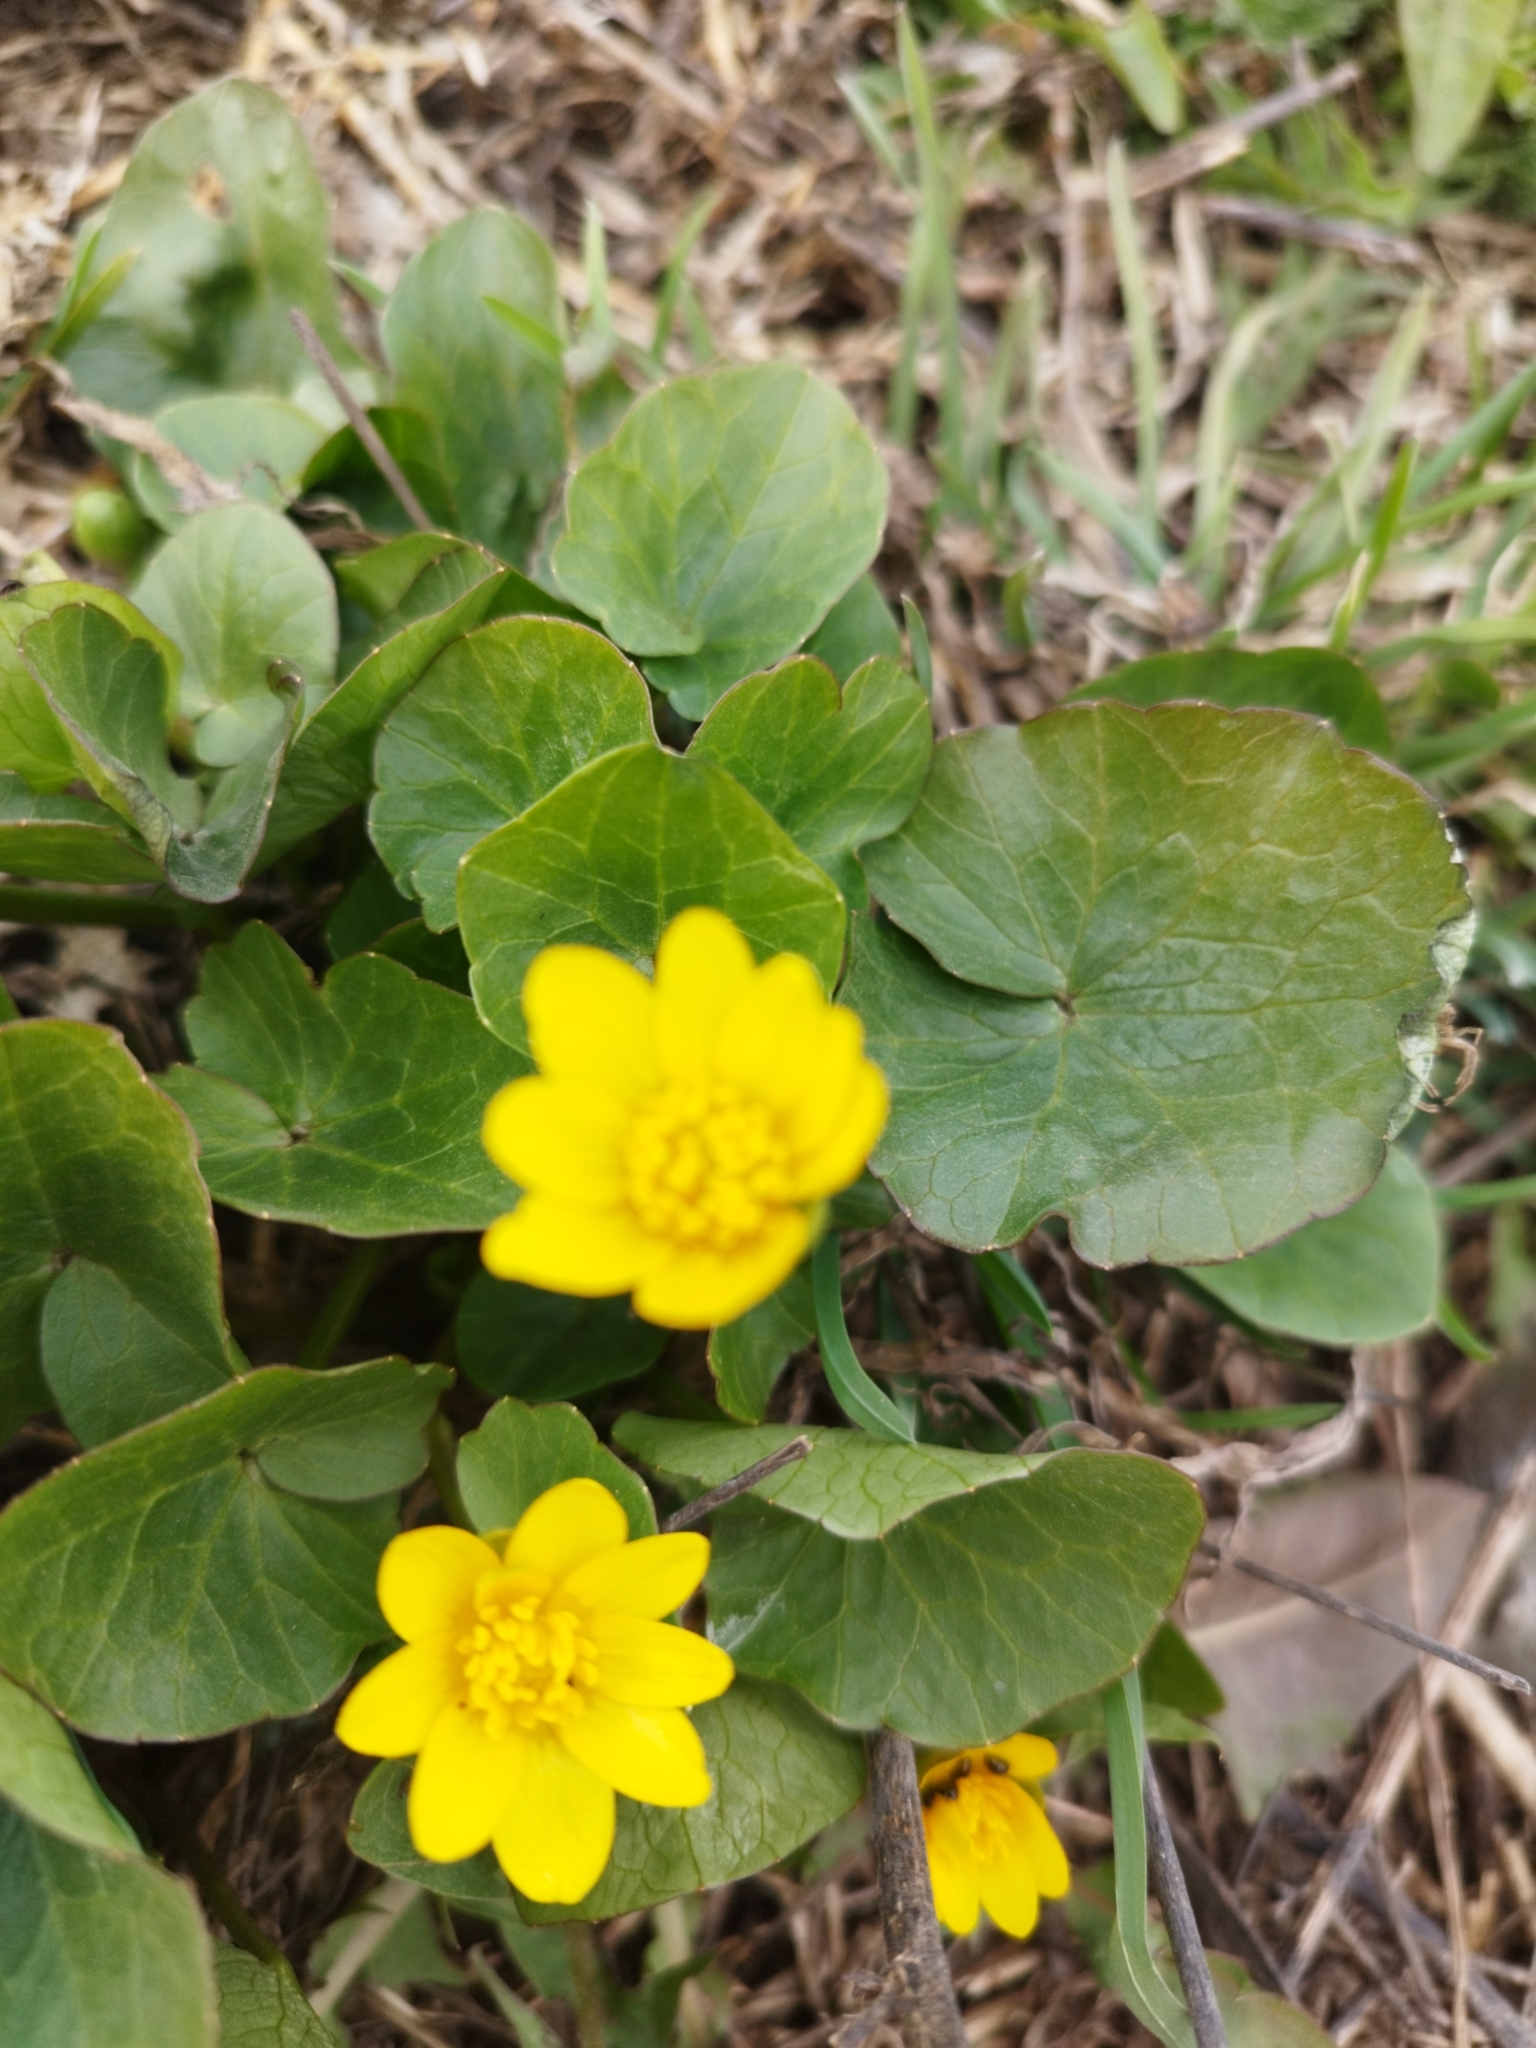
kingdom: Plantae
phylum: Tracheophyta
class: Magnoliopsida
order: Ranunculales
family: Ranunculaceae
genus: Ficaria
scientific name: Ficaria verna
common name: Lesser celandine
